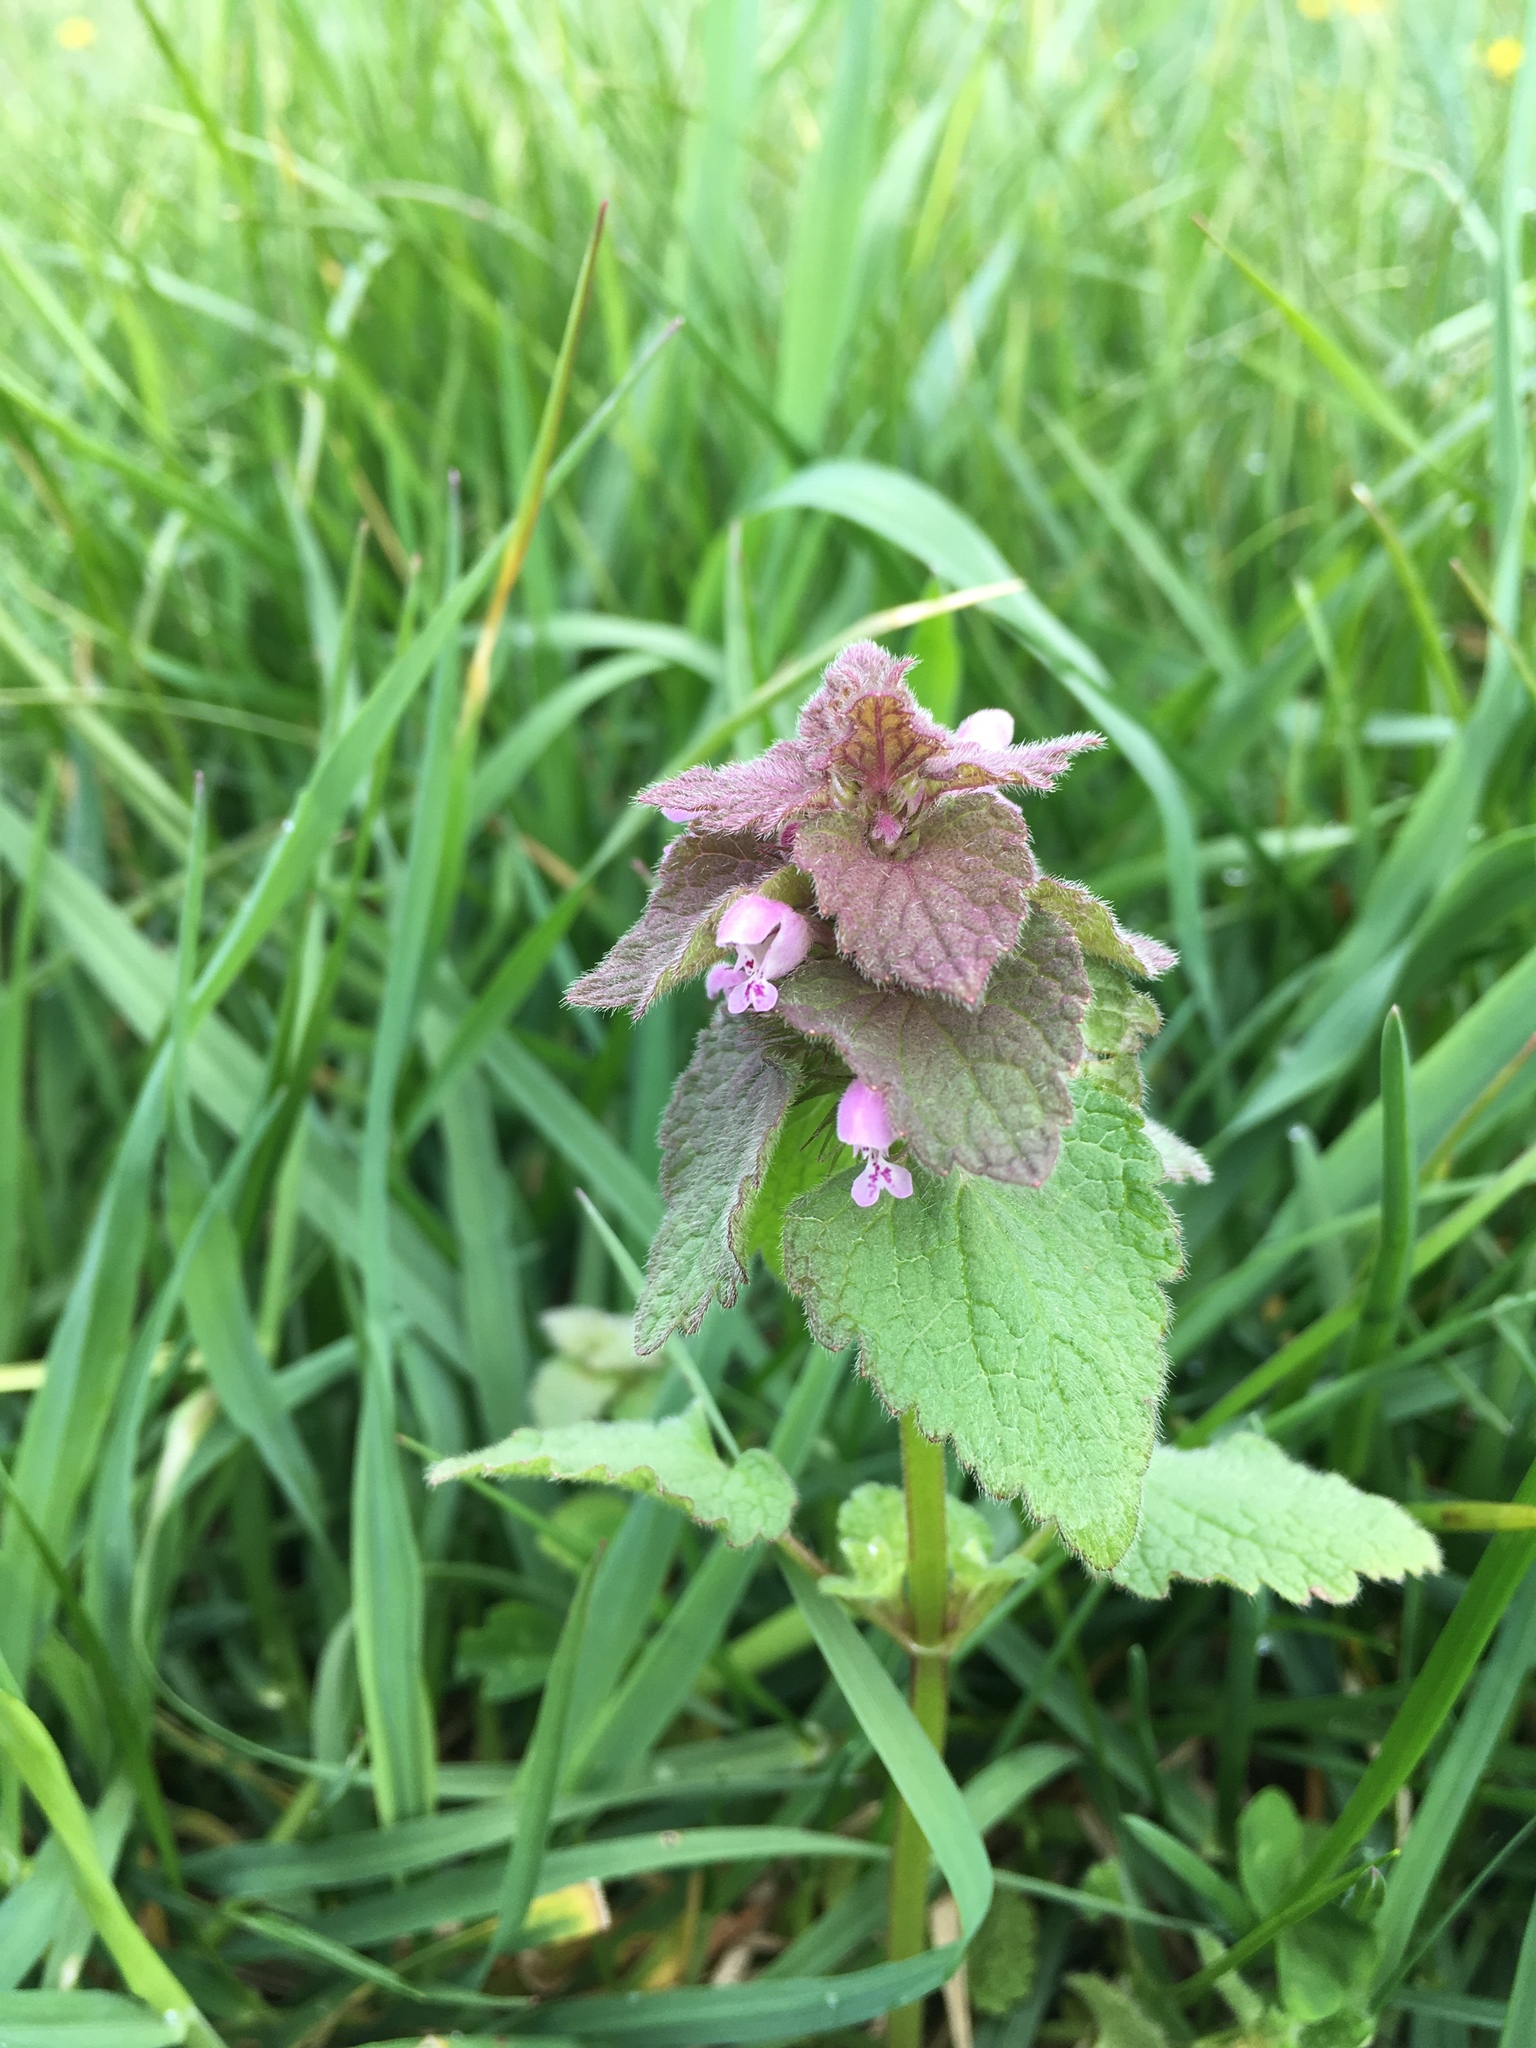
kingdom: Plantae
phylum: Tracheophyta
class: Magnoliopsida
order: Lamiales
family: Lamiaceae
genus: Lamium
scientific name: Lamium purpureum
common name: Red dead-nettle
